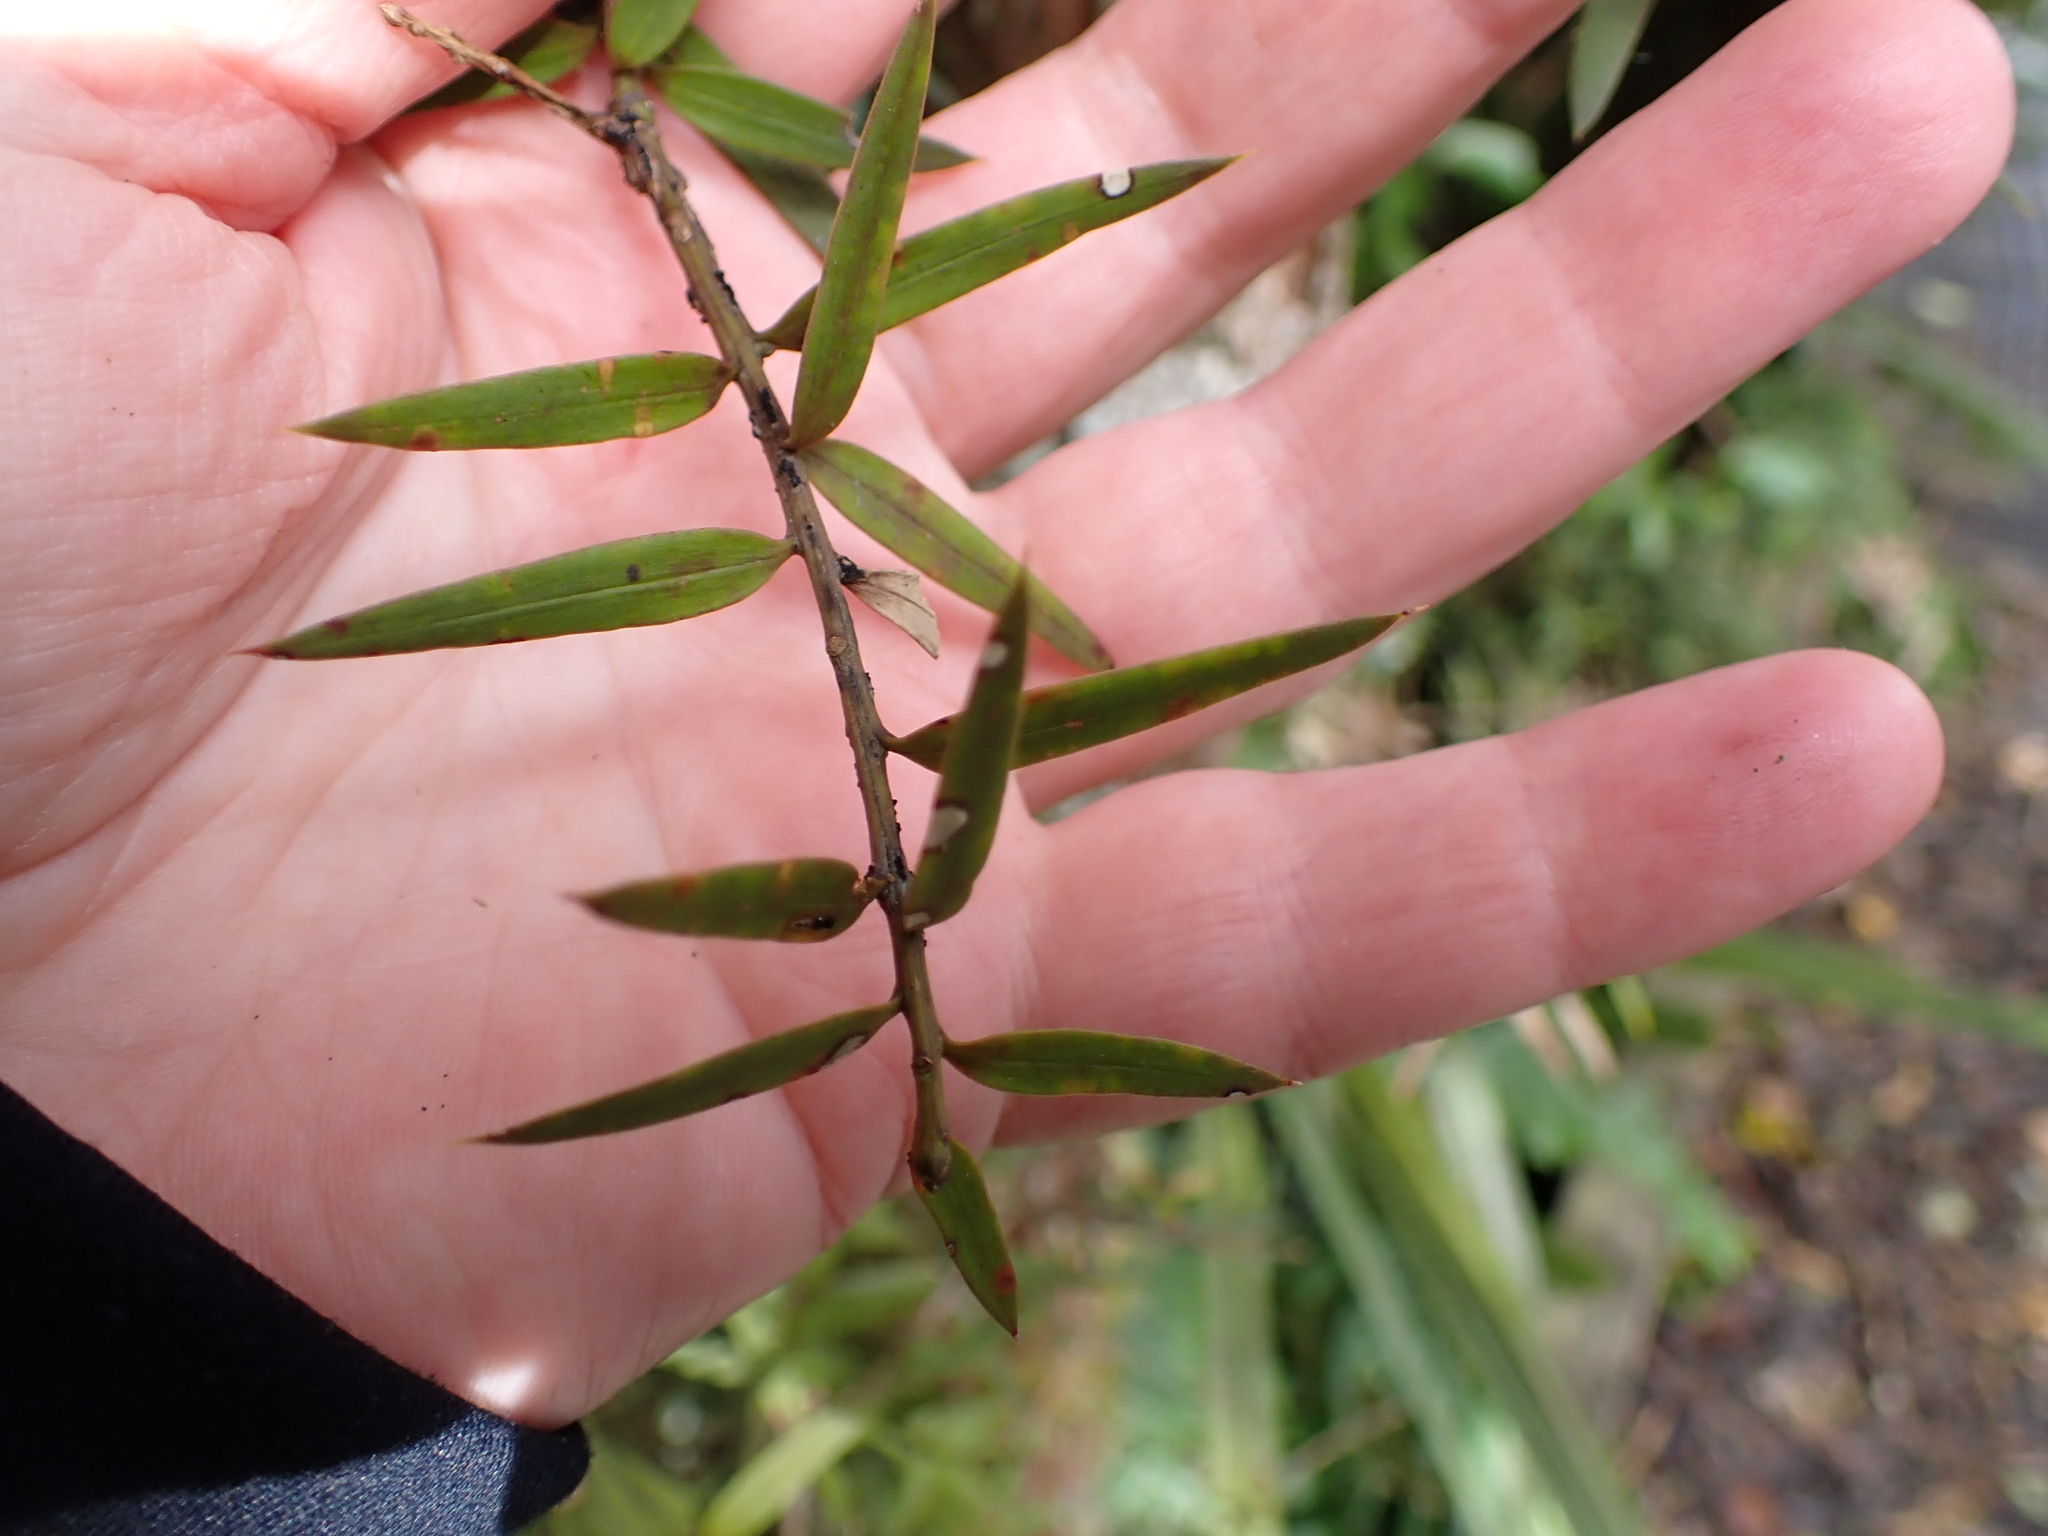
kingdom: Plantae
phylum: Tracheophyta
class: Pinopsida
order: Pinales
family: Podocarpaceae
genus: Podocarpus
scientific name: Podocarpus laetus
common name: Hall's totara
